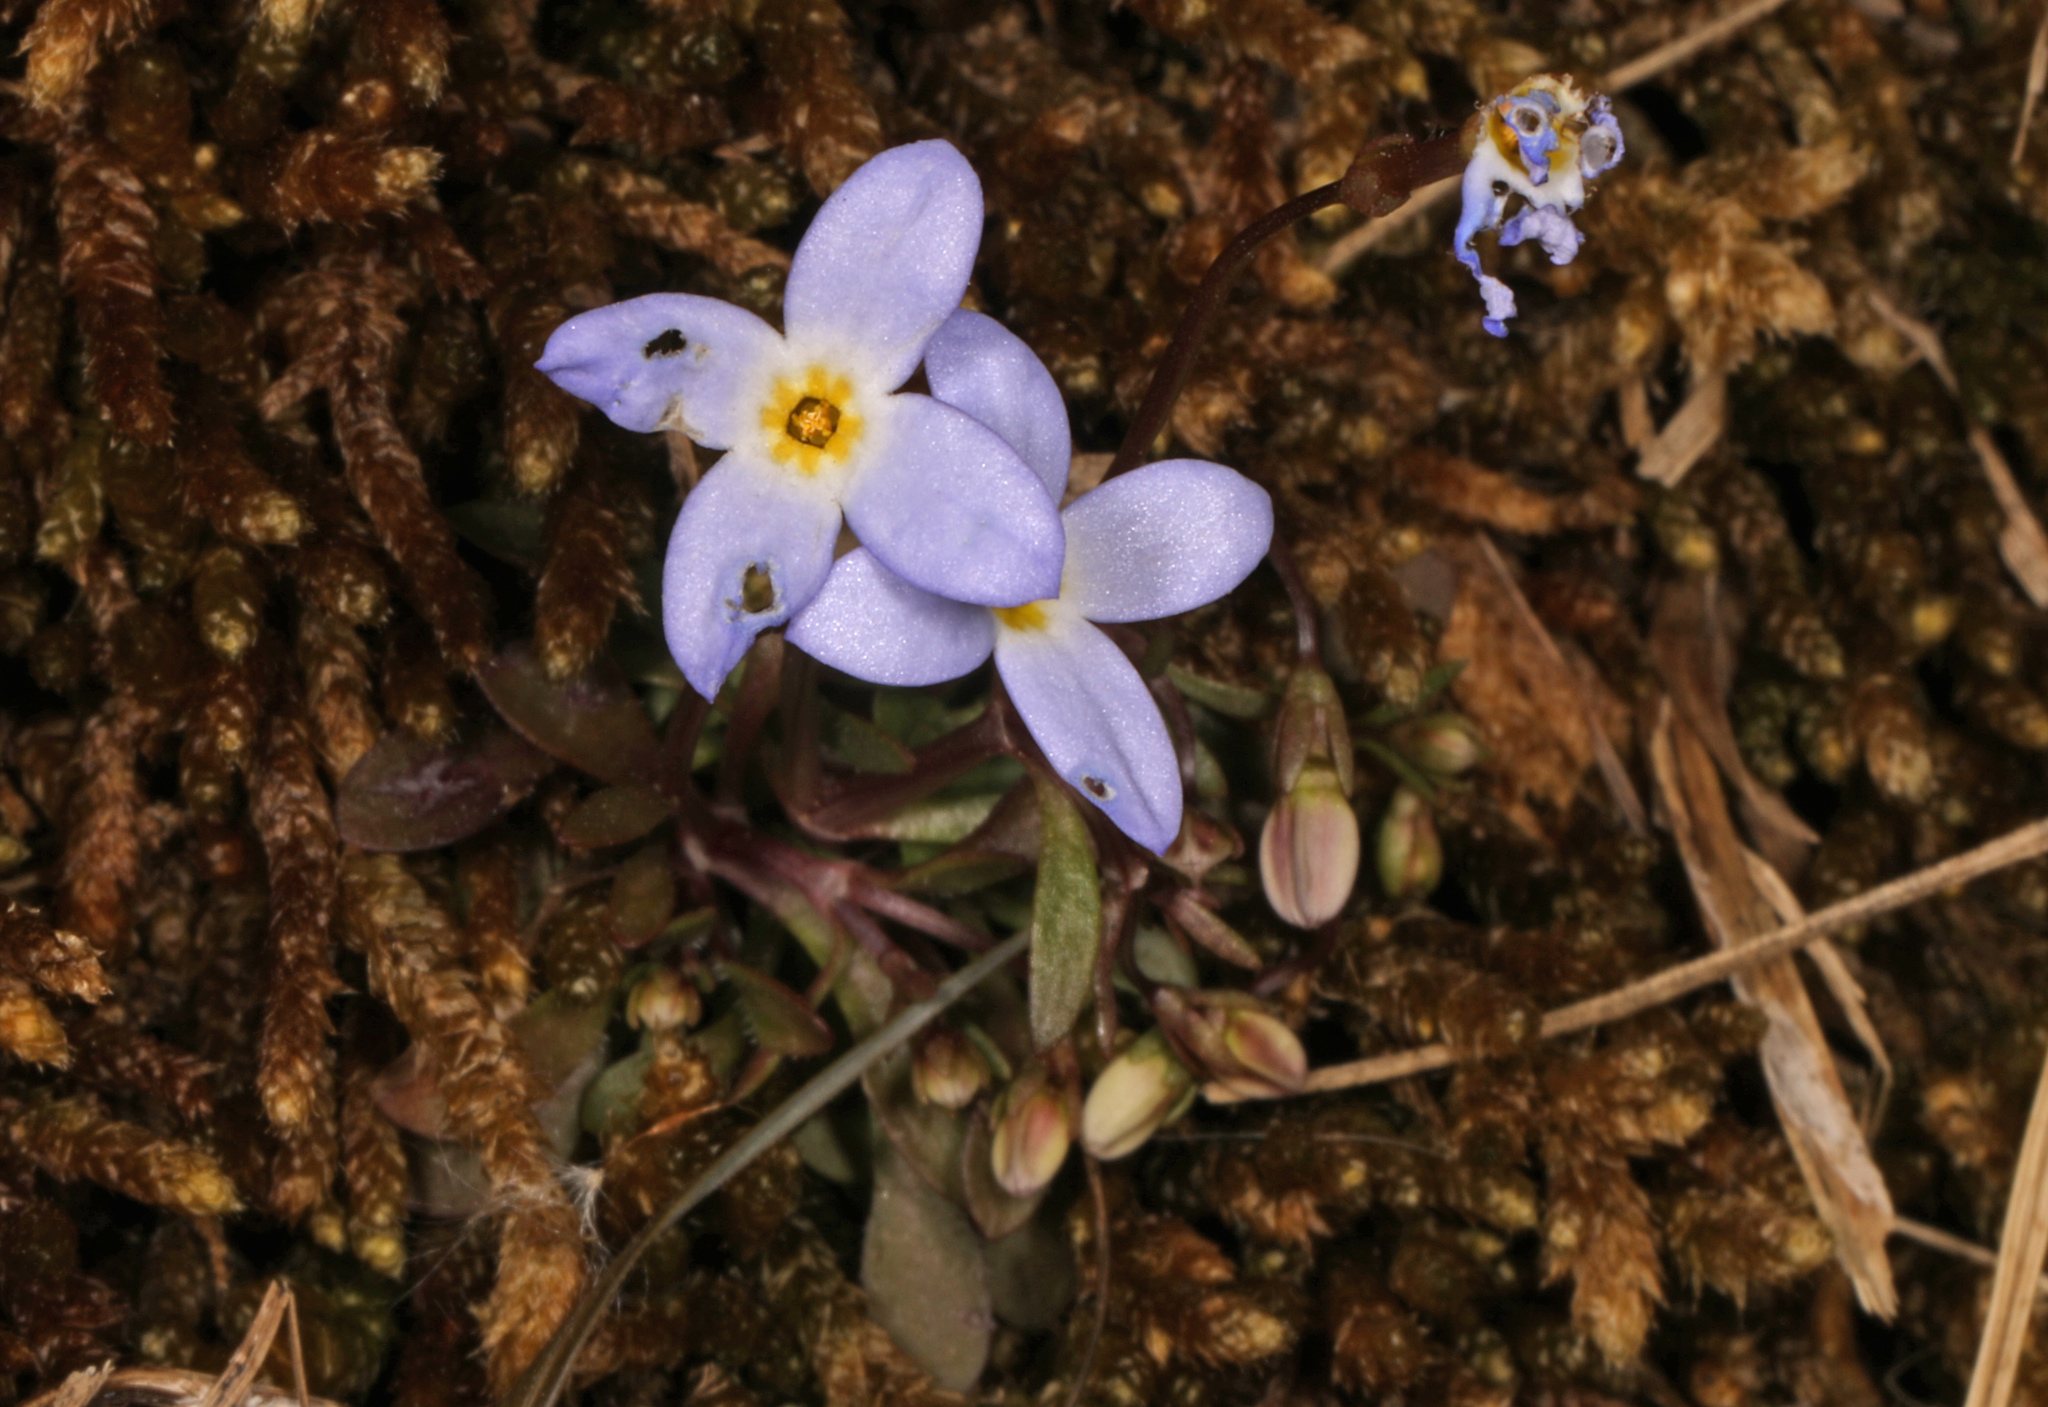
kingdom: Plantae
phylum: Tracheophyta
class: Magnoliopsida
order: Gentianales
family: Rubiaceae
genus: Houstonia
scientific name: Houstonia caerulea
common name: Bluets
